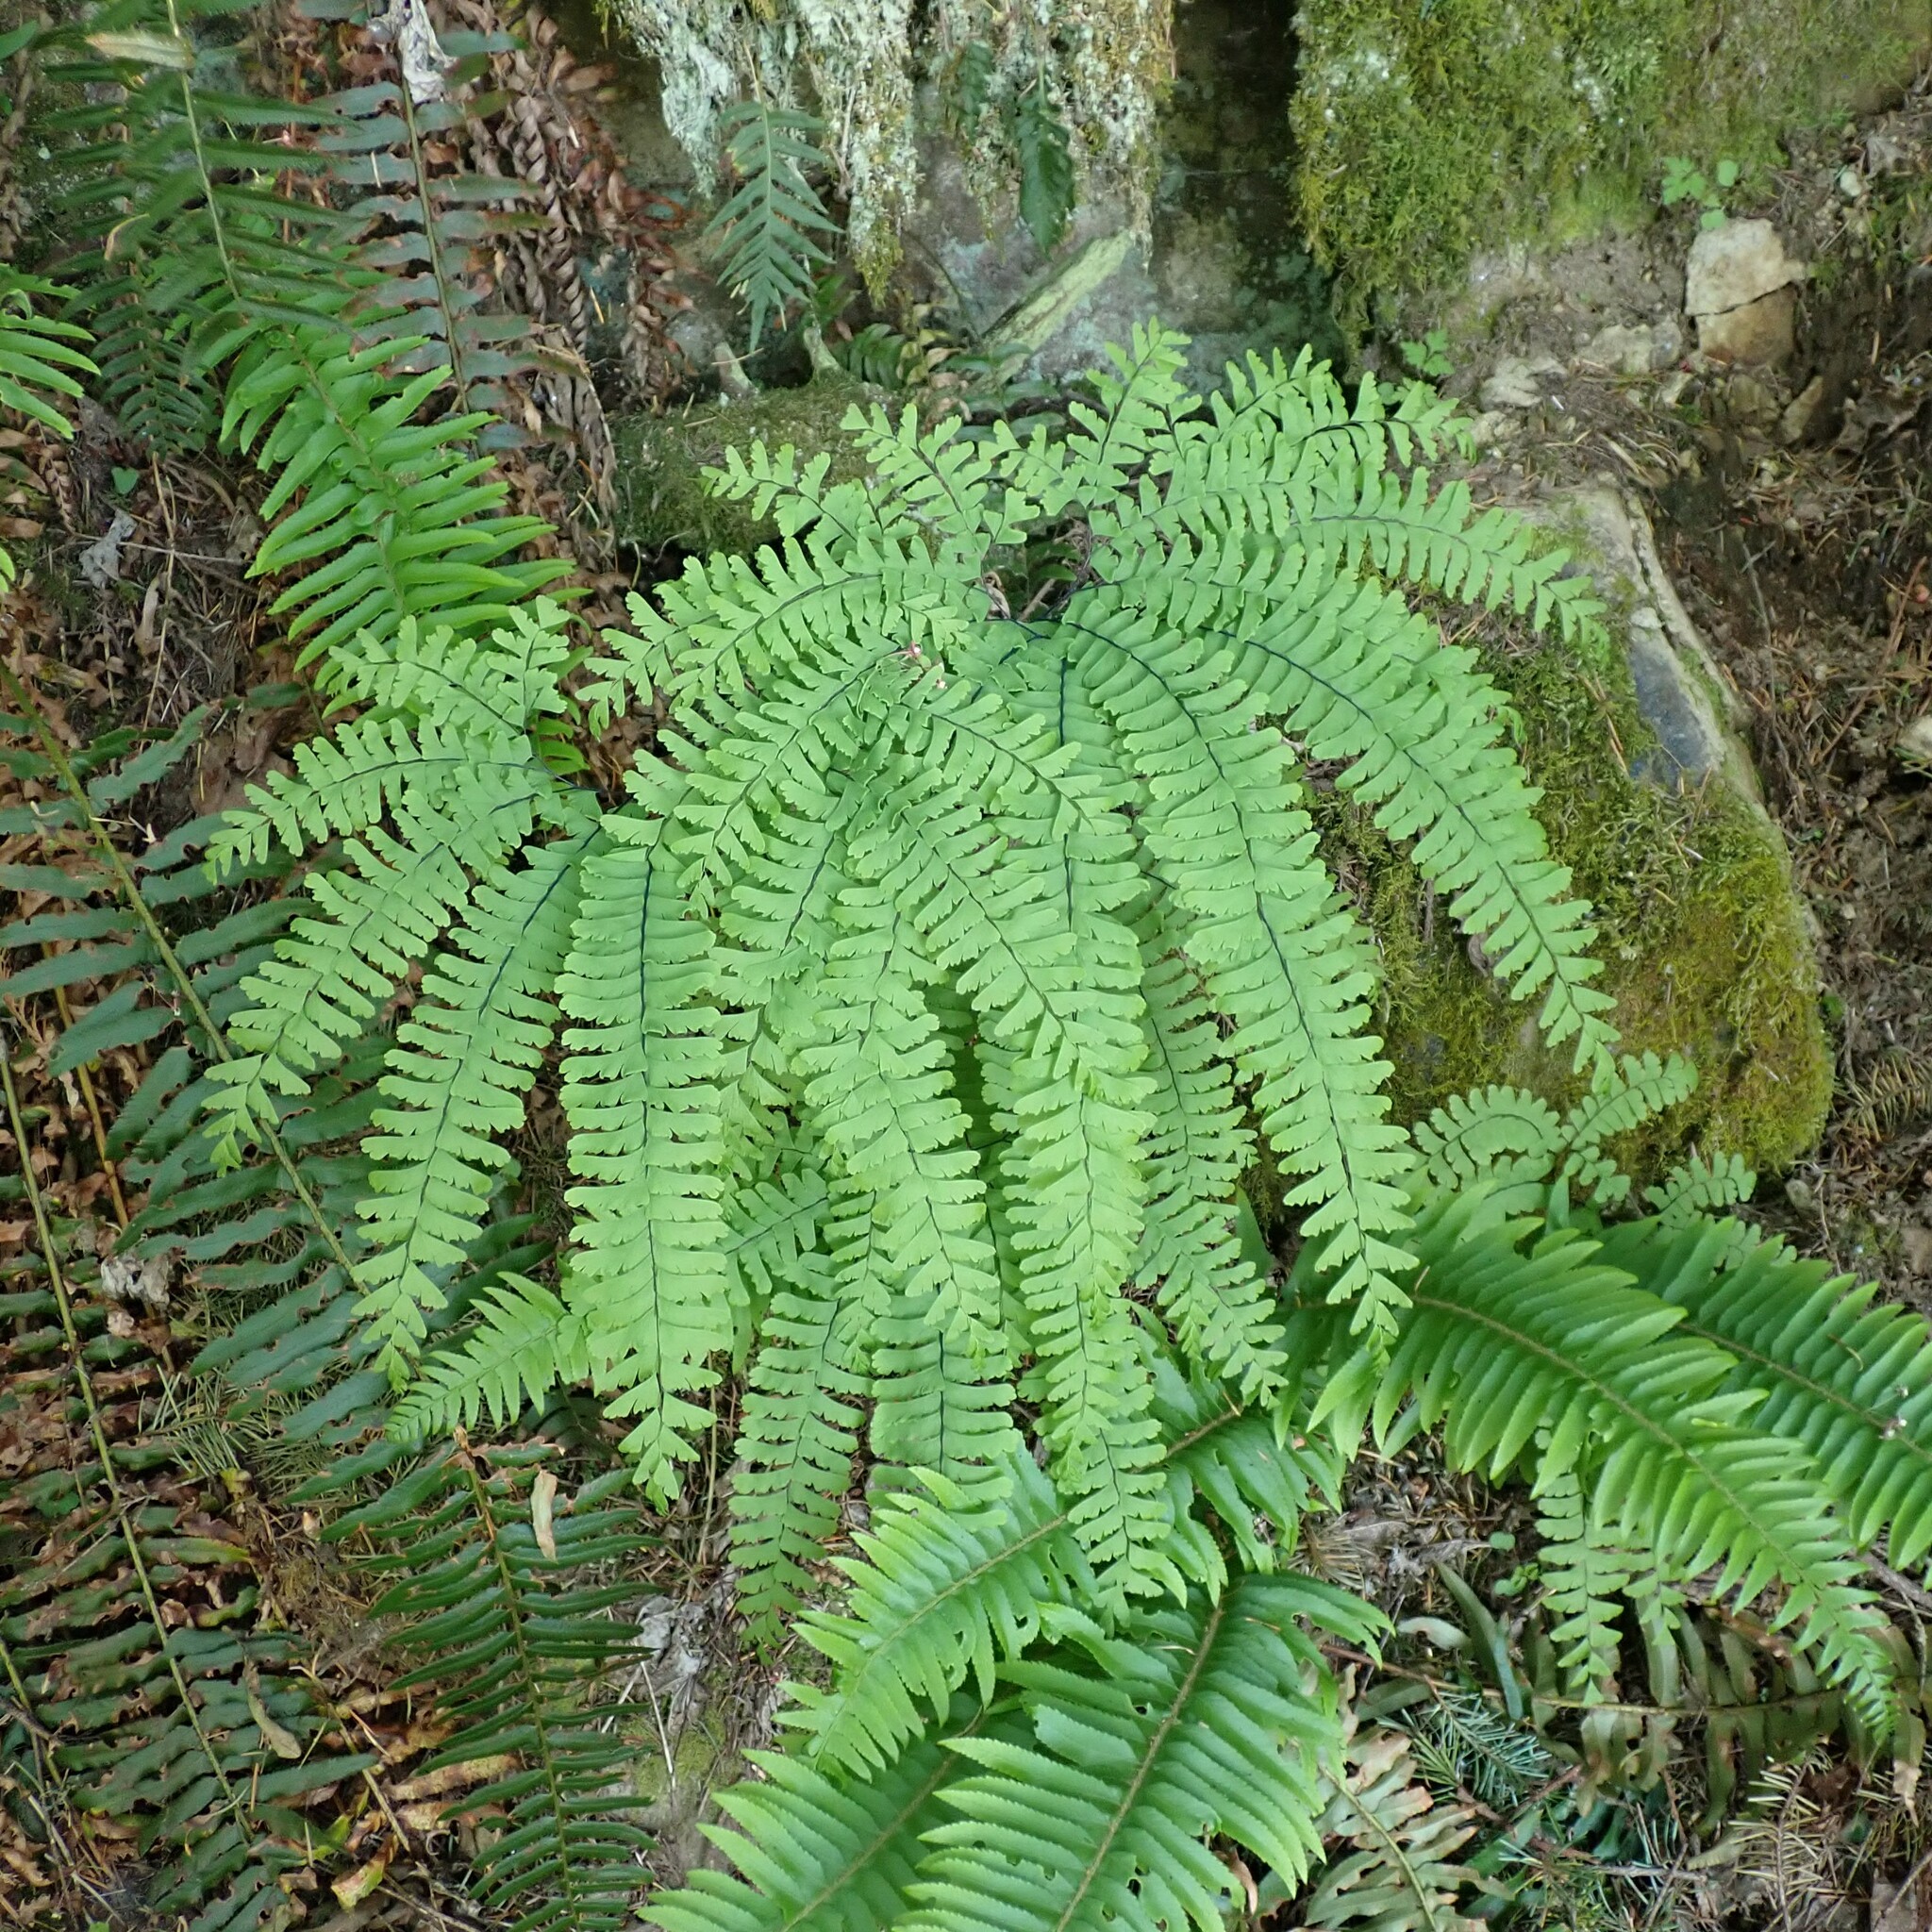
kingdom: Plantae
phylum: Tracheophyta
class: Polypodiopsida
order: Polypodiales
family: Pteridaceae
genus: Adiantum
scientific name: Adiantum aleuticum
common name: Aleutian maidenhair fern
